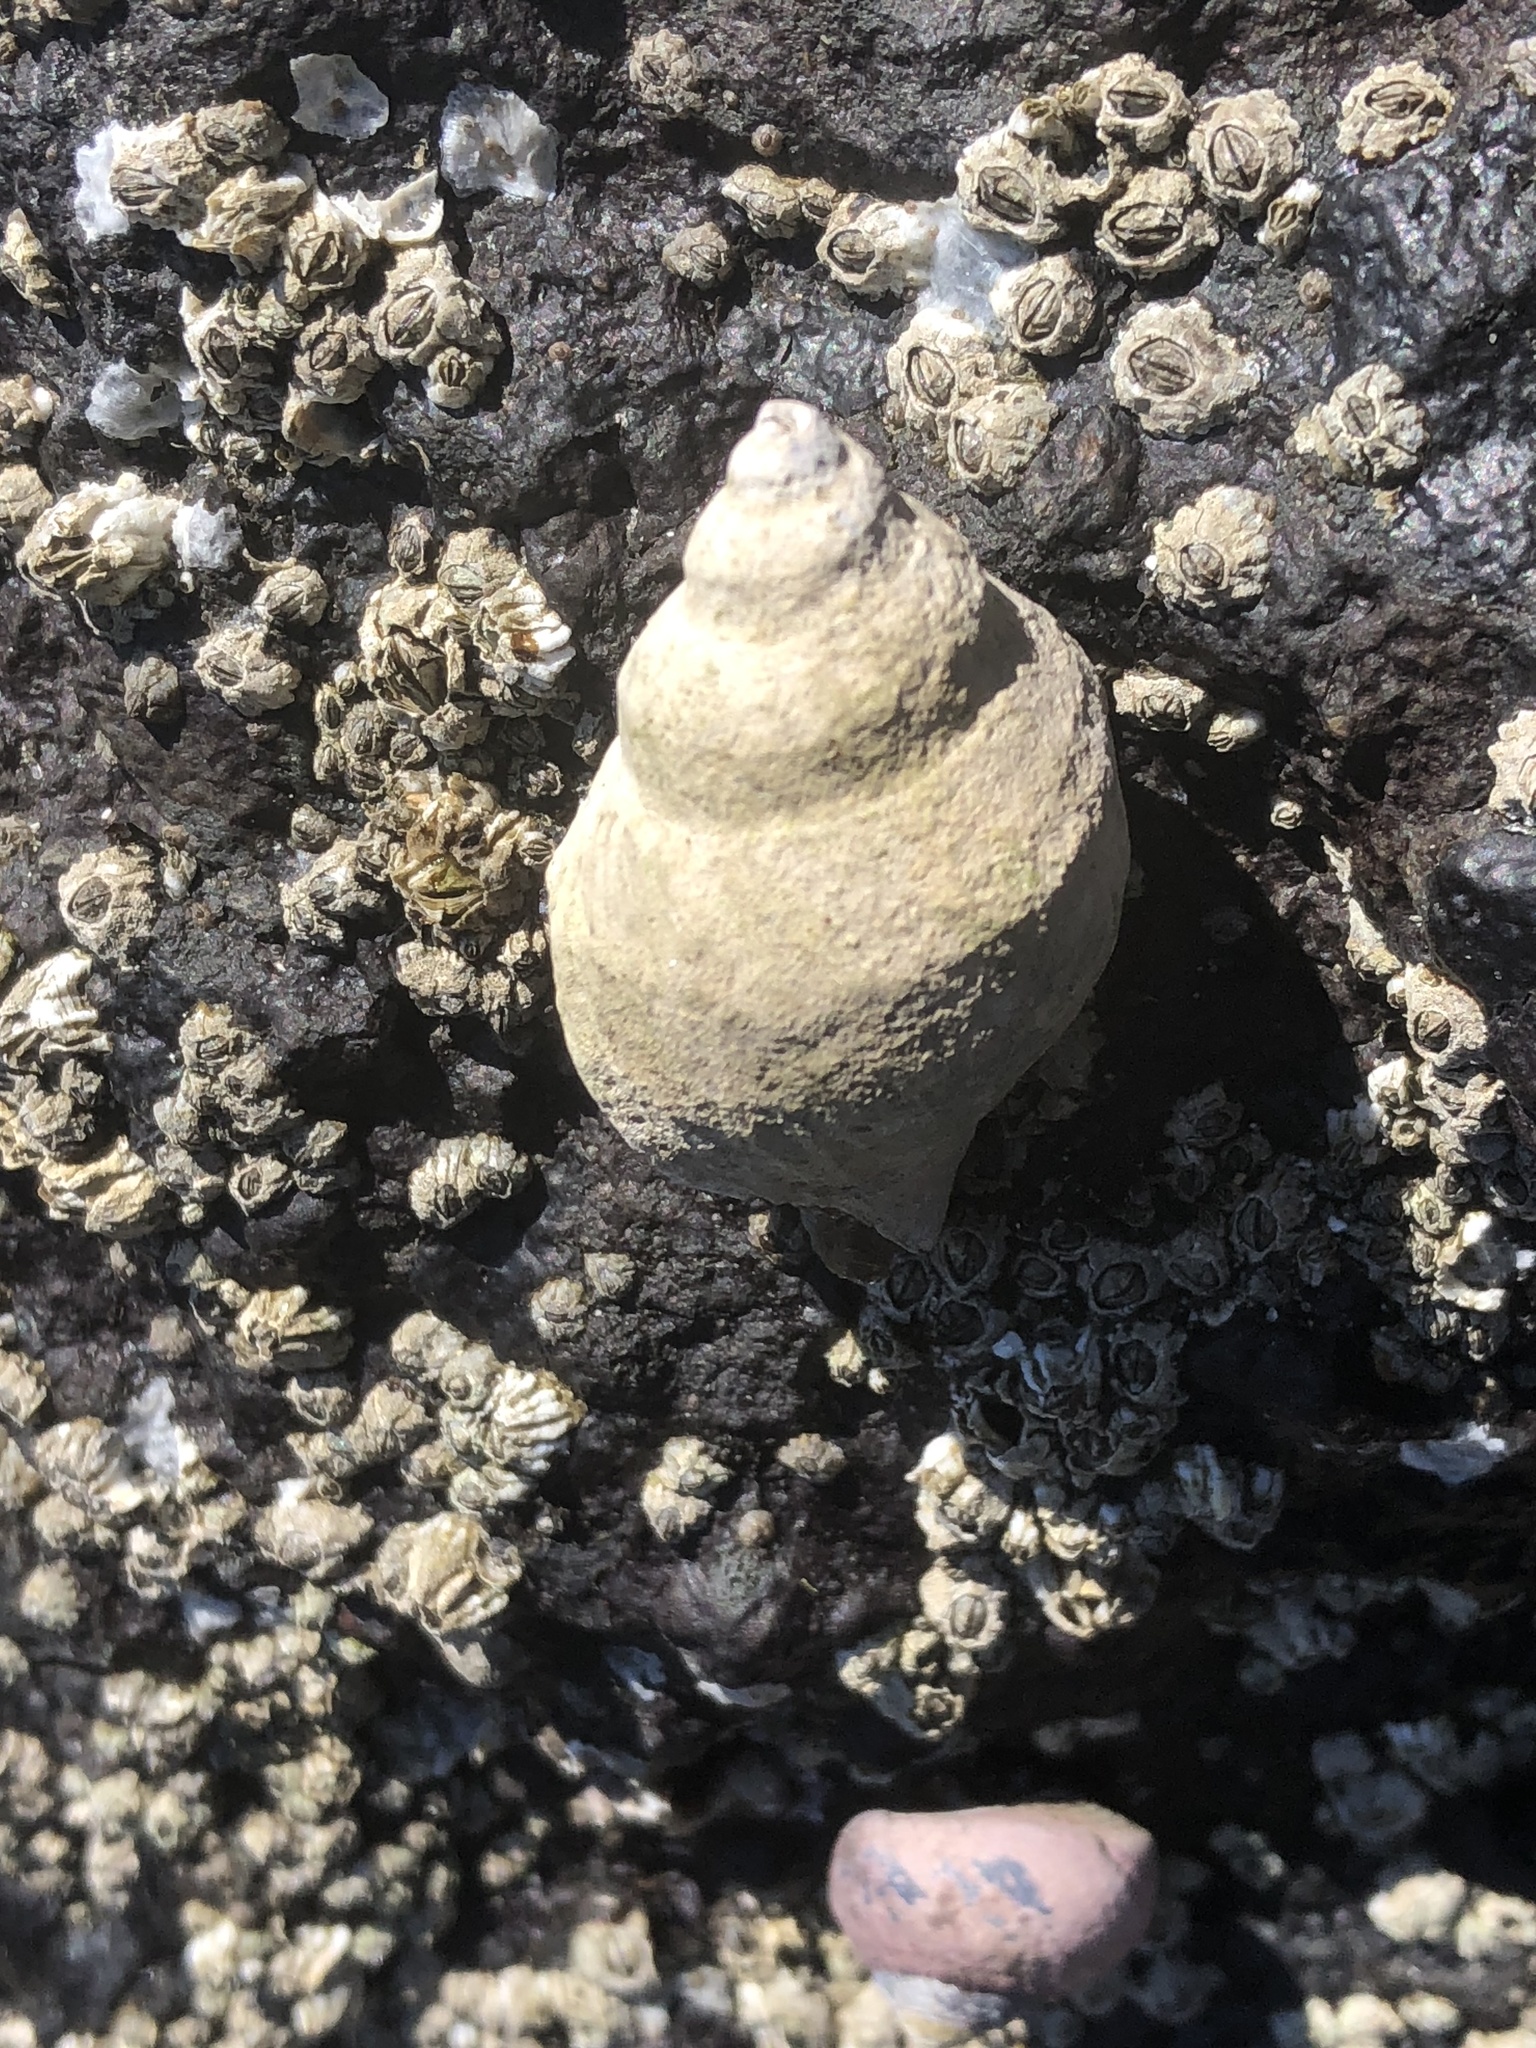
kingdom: Animalia
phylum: Mollusca
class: Gastropoda
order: Neogastropoda
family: Muricidae
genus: Nucella
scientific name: Nucella lamellosa
